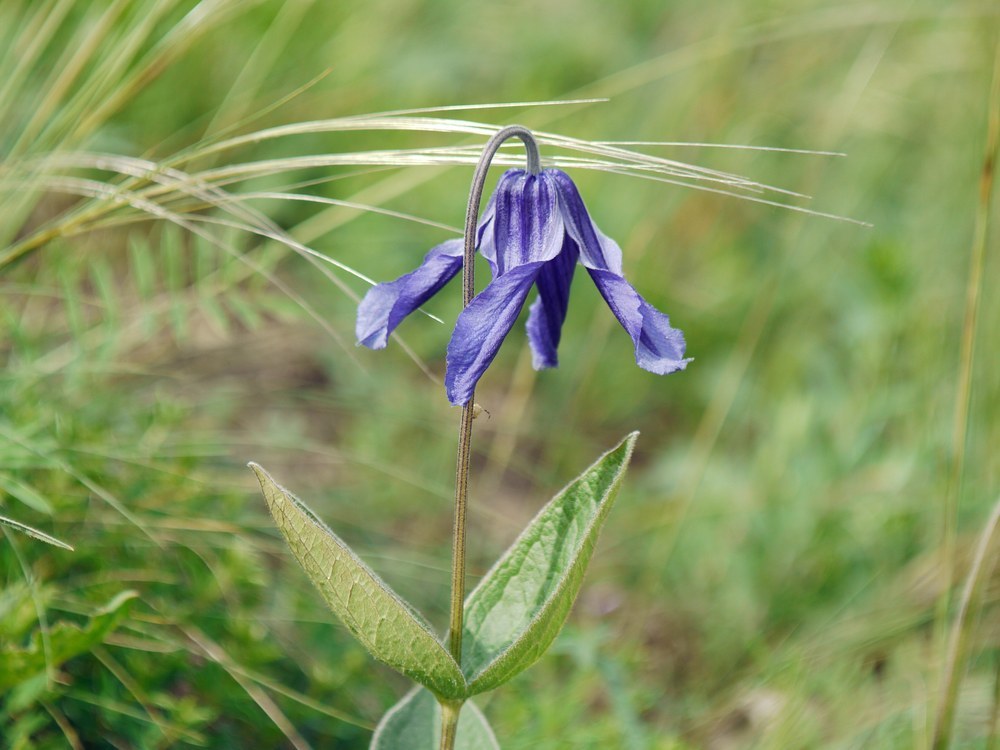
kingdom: Plantae
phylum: Tracheophyta
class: Magnoliopsida
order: Ranunculales
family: Ranunculaceae
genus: Clematis
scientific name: Clematis integrifolia
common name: Solitary clematis
